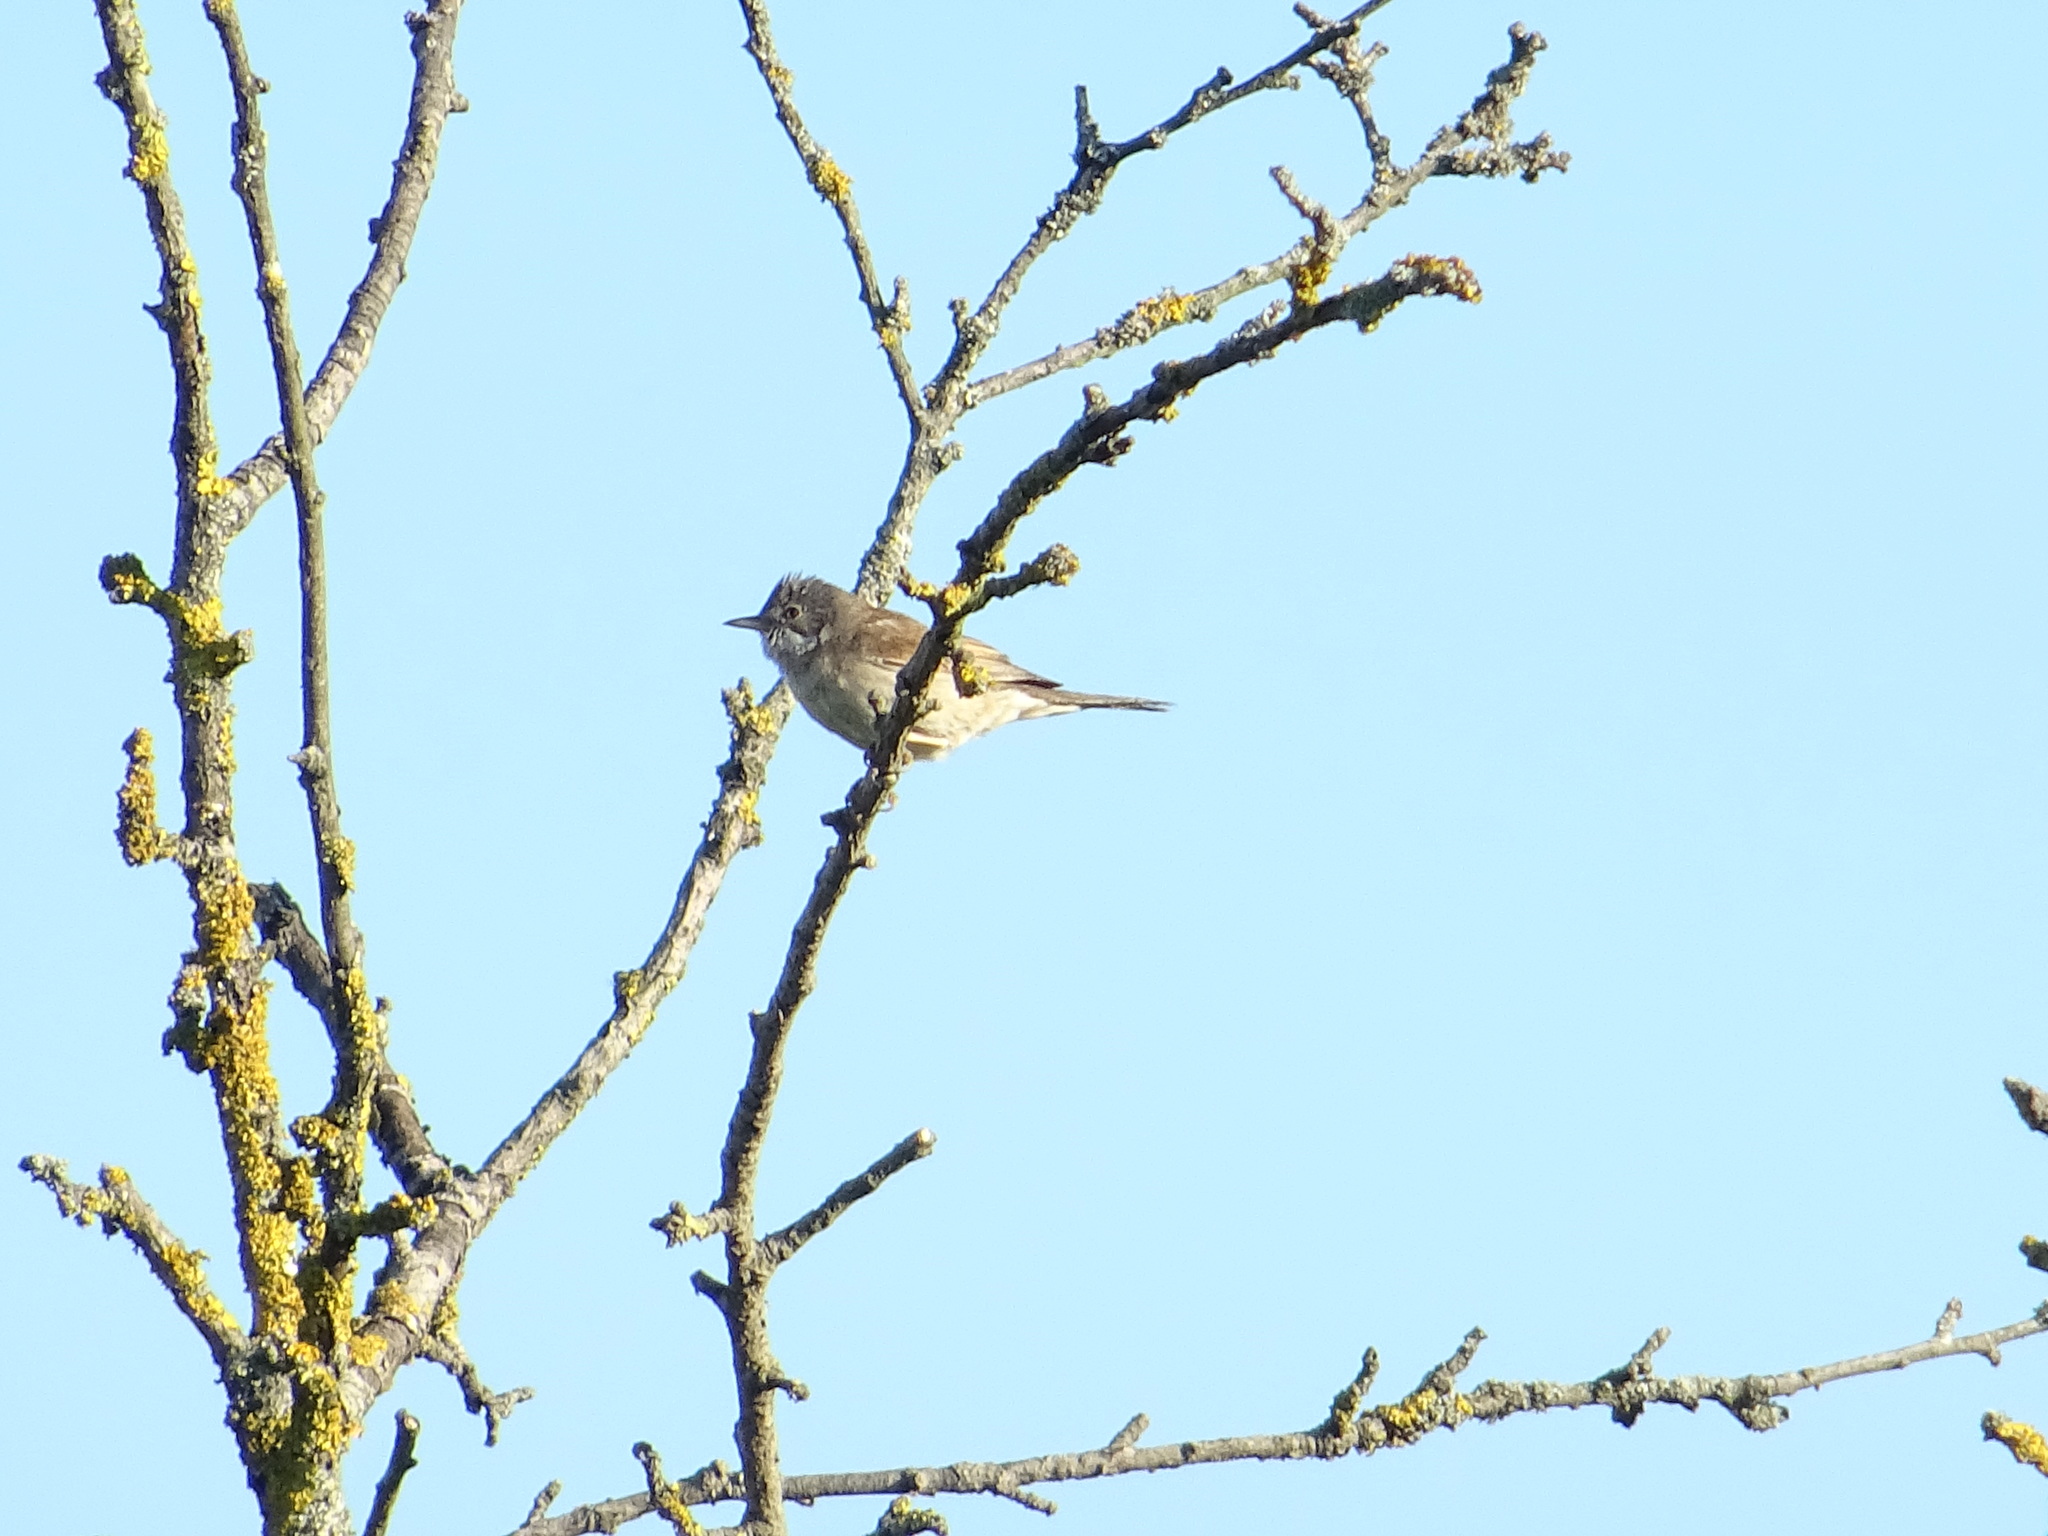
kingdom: Animalia
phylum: Chordata
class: Aves
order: Passeriformes
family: Sylviidae
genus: Sylvia
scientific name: Sylvia communis
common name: Common whitethroat
